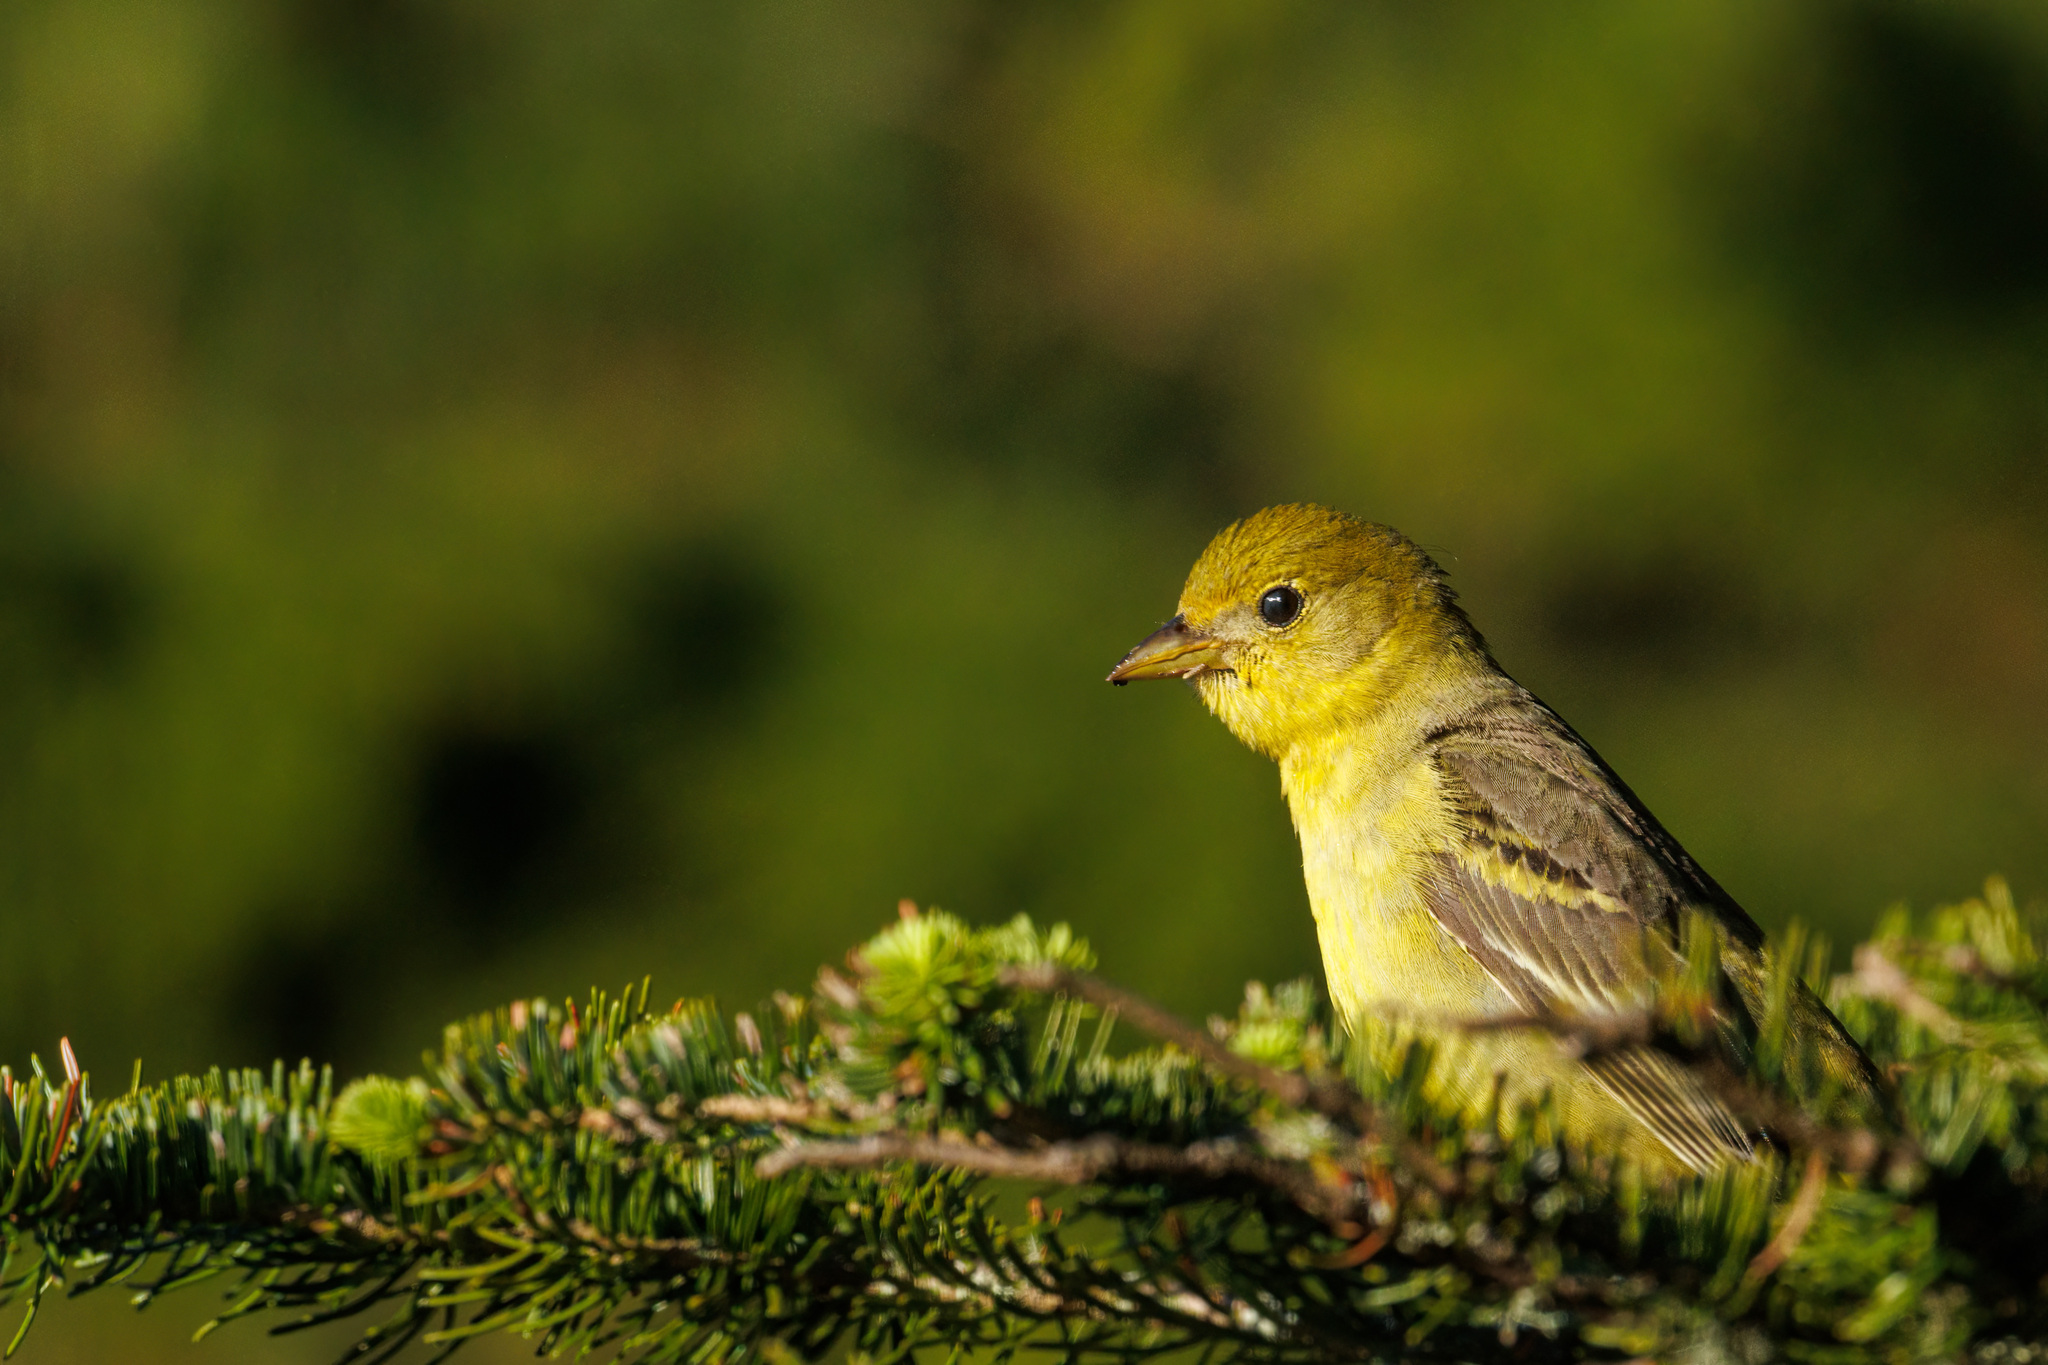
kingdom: Animalia
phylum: Chordata
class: Aves
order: Passeriformes
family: Cardinalidae
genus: Piranga
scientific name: Piranga ludoviciana
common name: Western tanager
